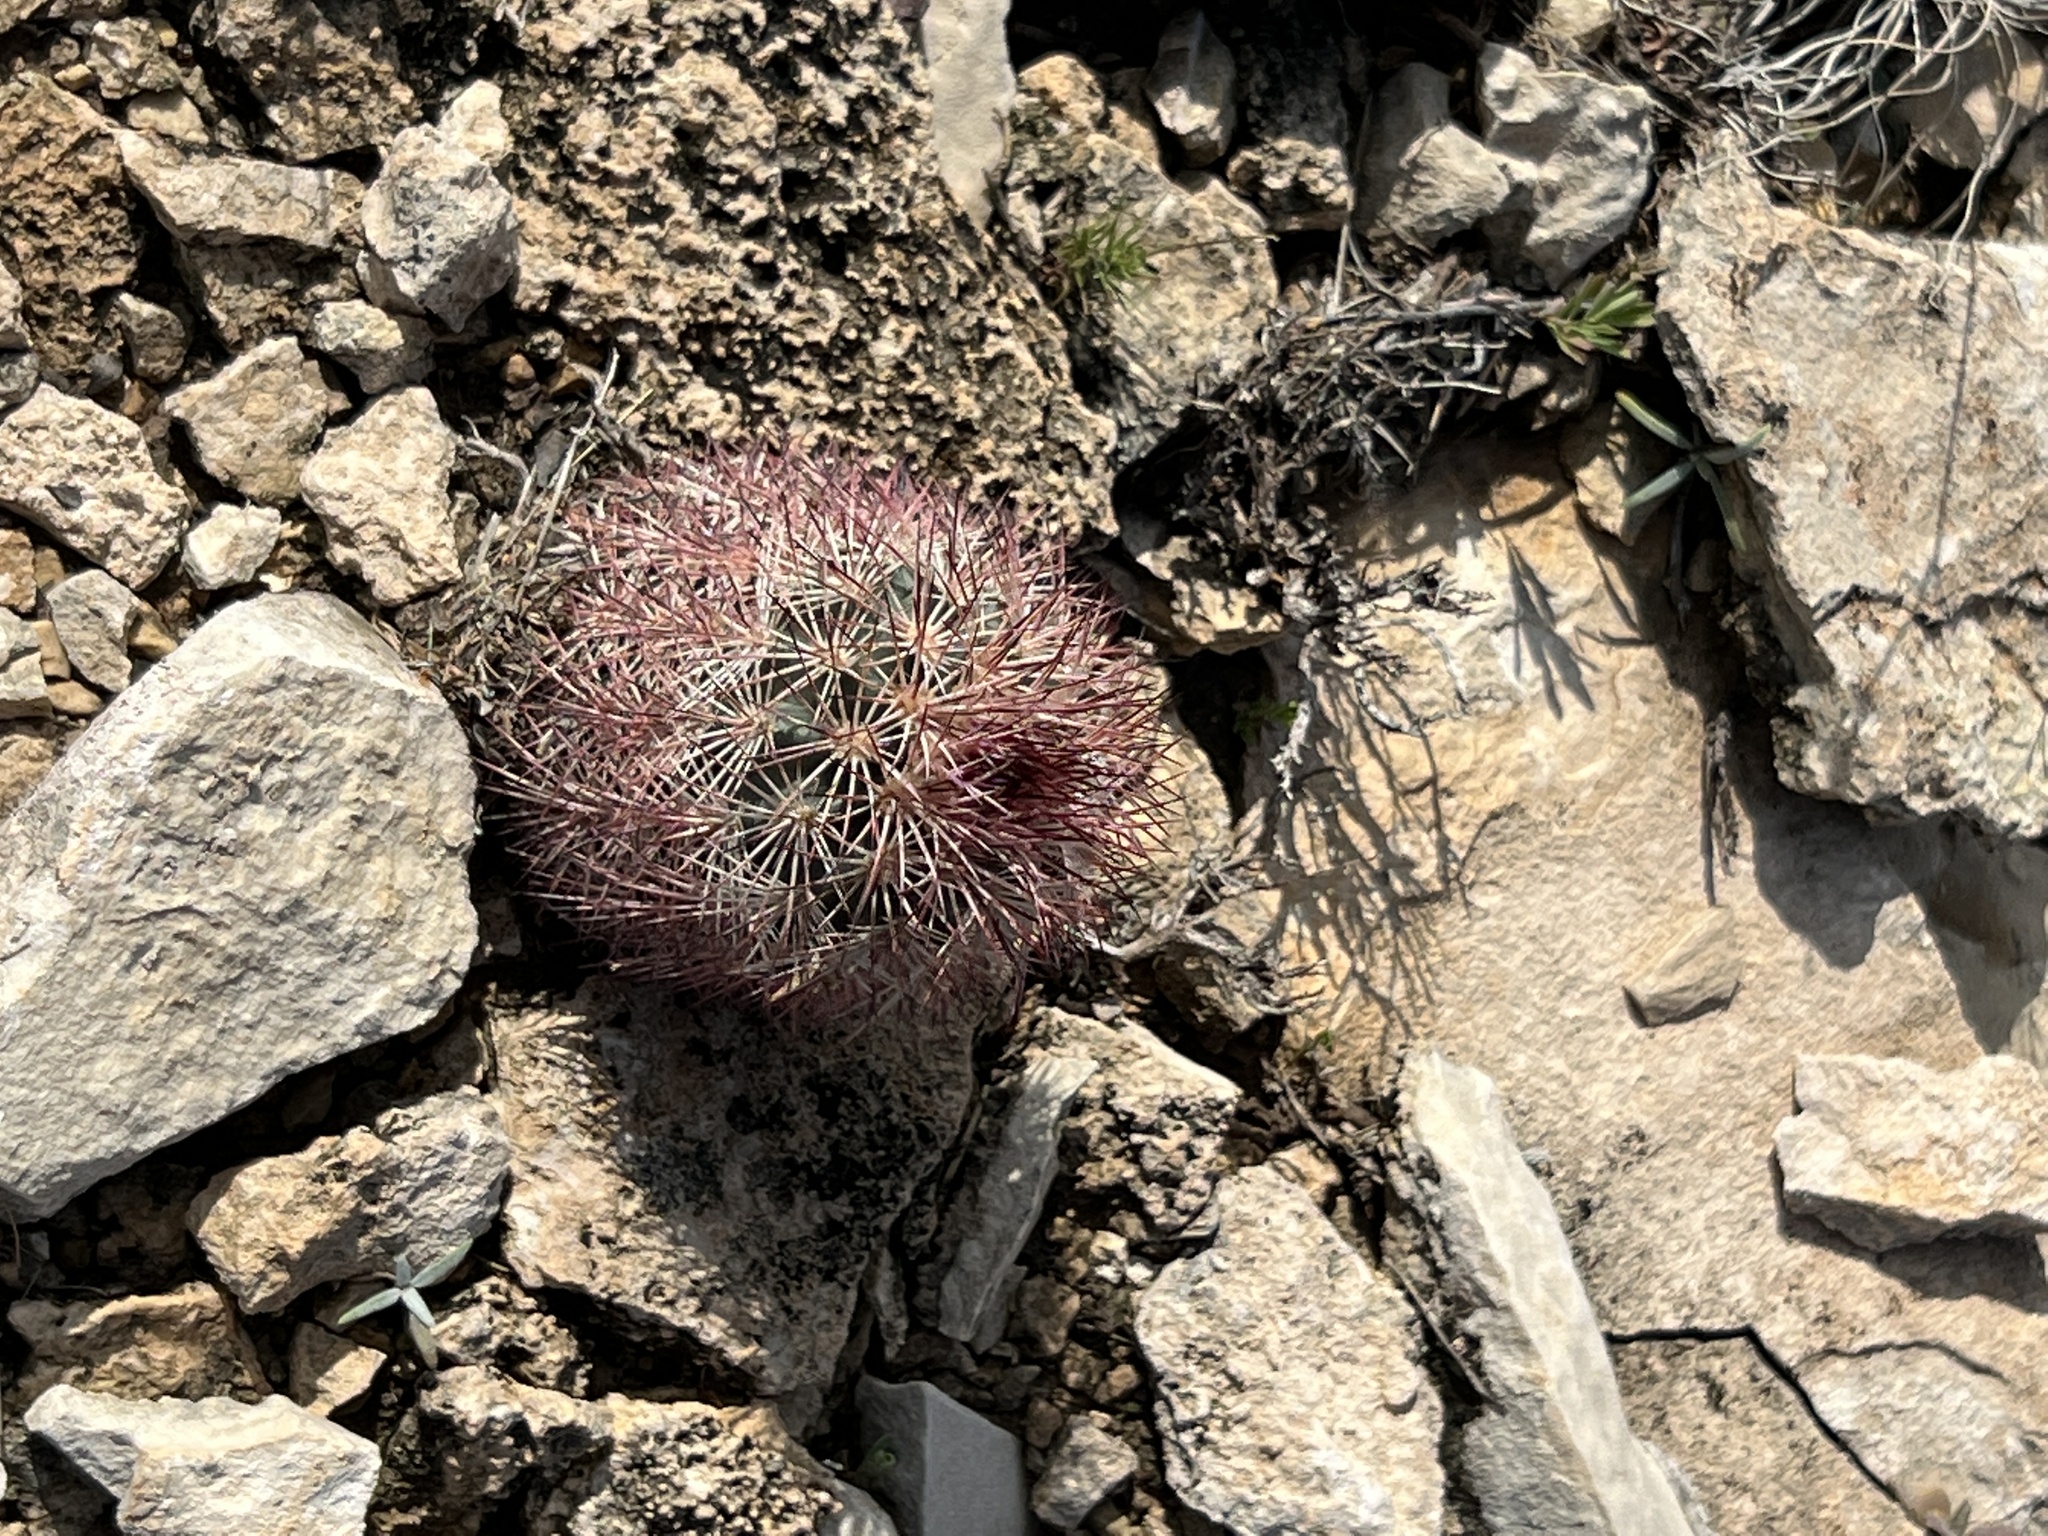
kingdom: Plantae
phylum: Tracheophyta
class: Magnoliopsida
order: Caryophyllales
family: Cactaceae
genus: Echinocereus
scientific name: Echinocereus dasyacanthus
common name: Spiny hedgehog cactus
